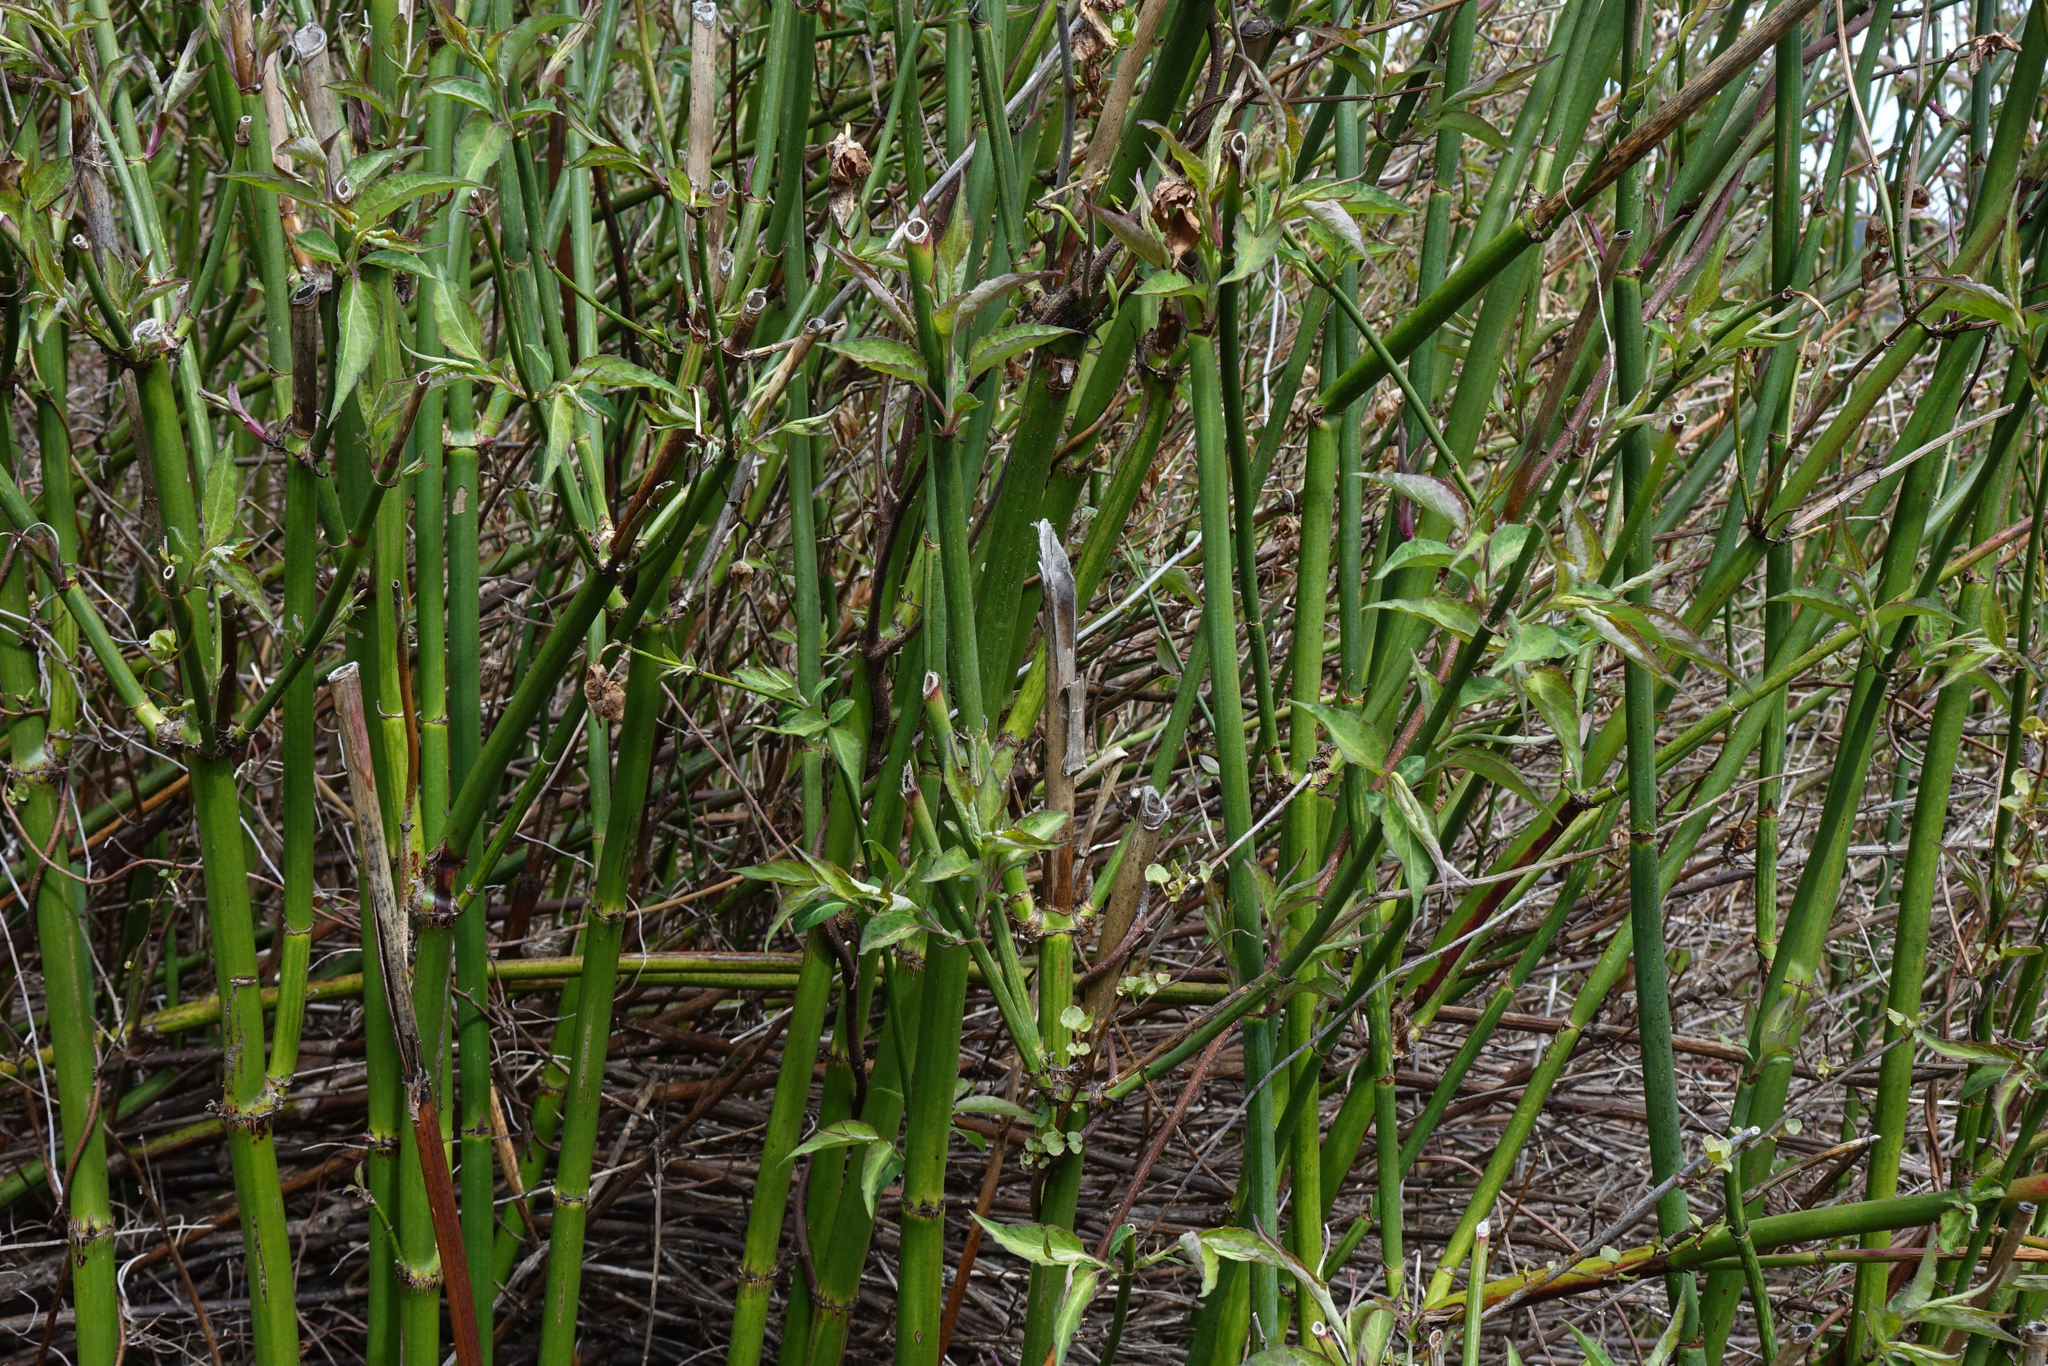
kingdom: Plantae
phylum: Tracheophyta
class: Magnoliopsida
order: Dipsacales
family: Caprifoliaceae
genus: Leycesteria
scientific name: Leycesteria formosa
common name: Himalayan honeysuckle
